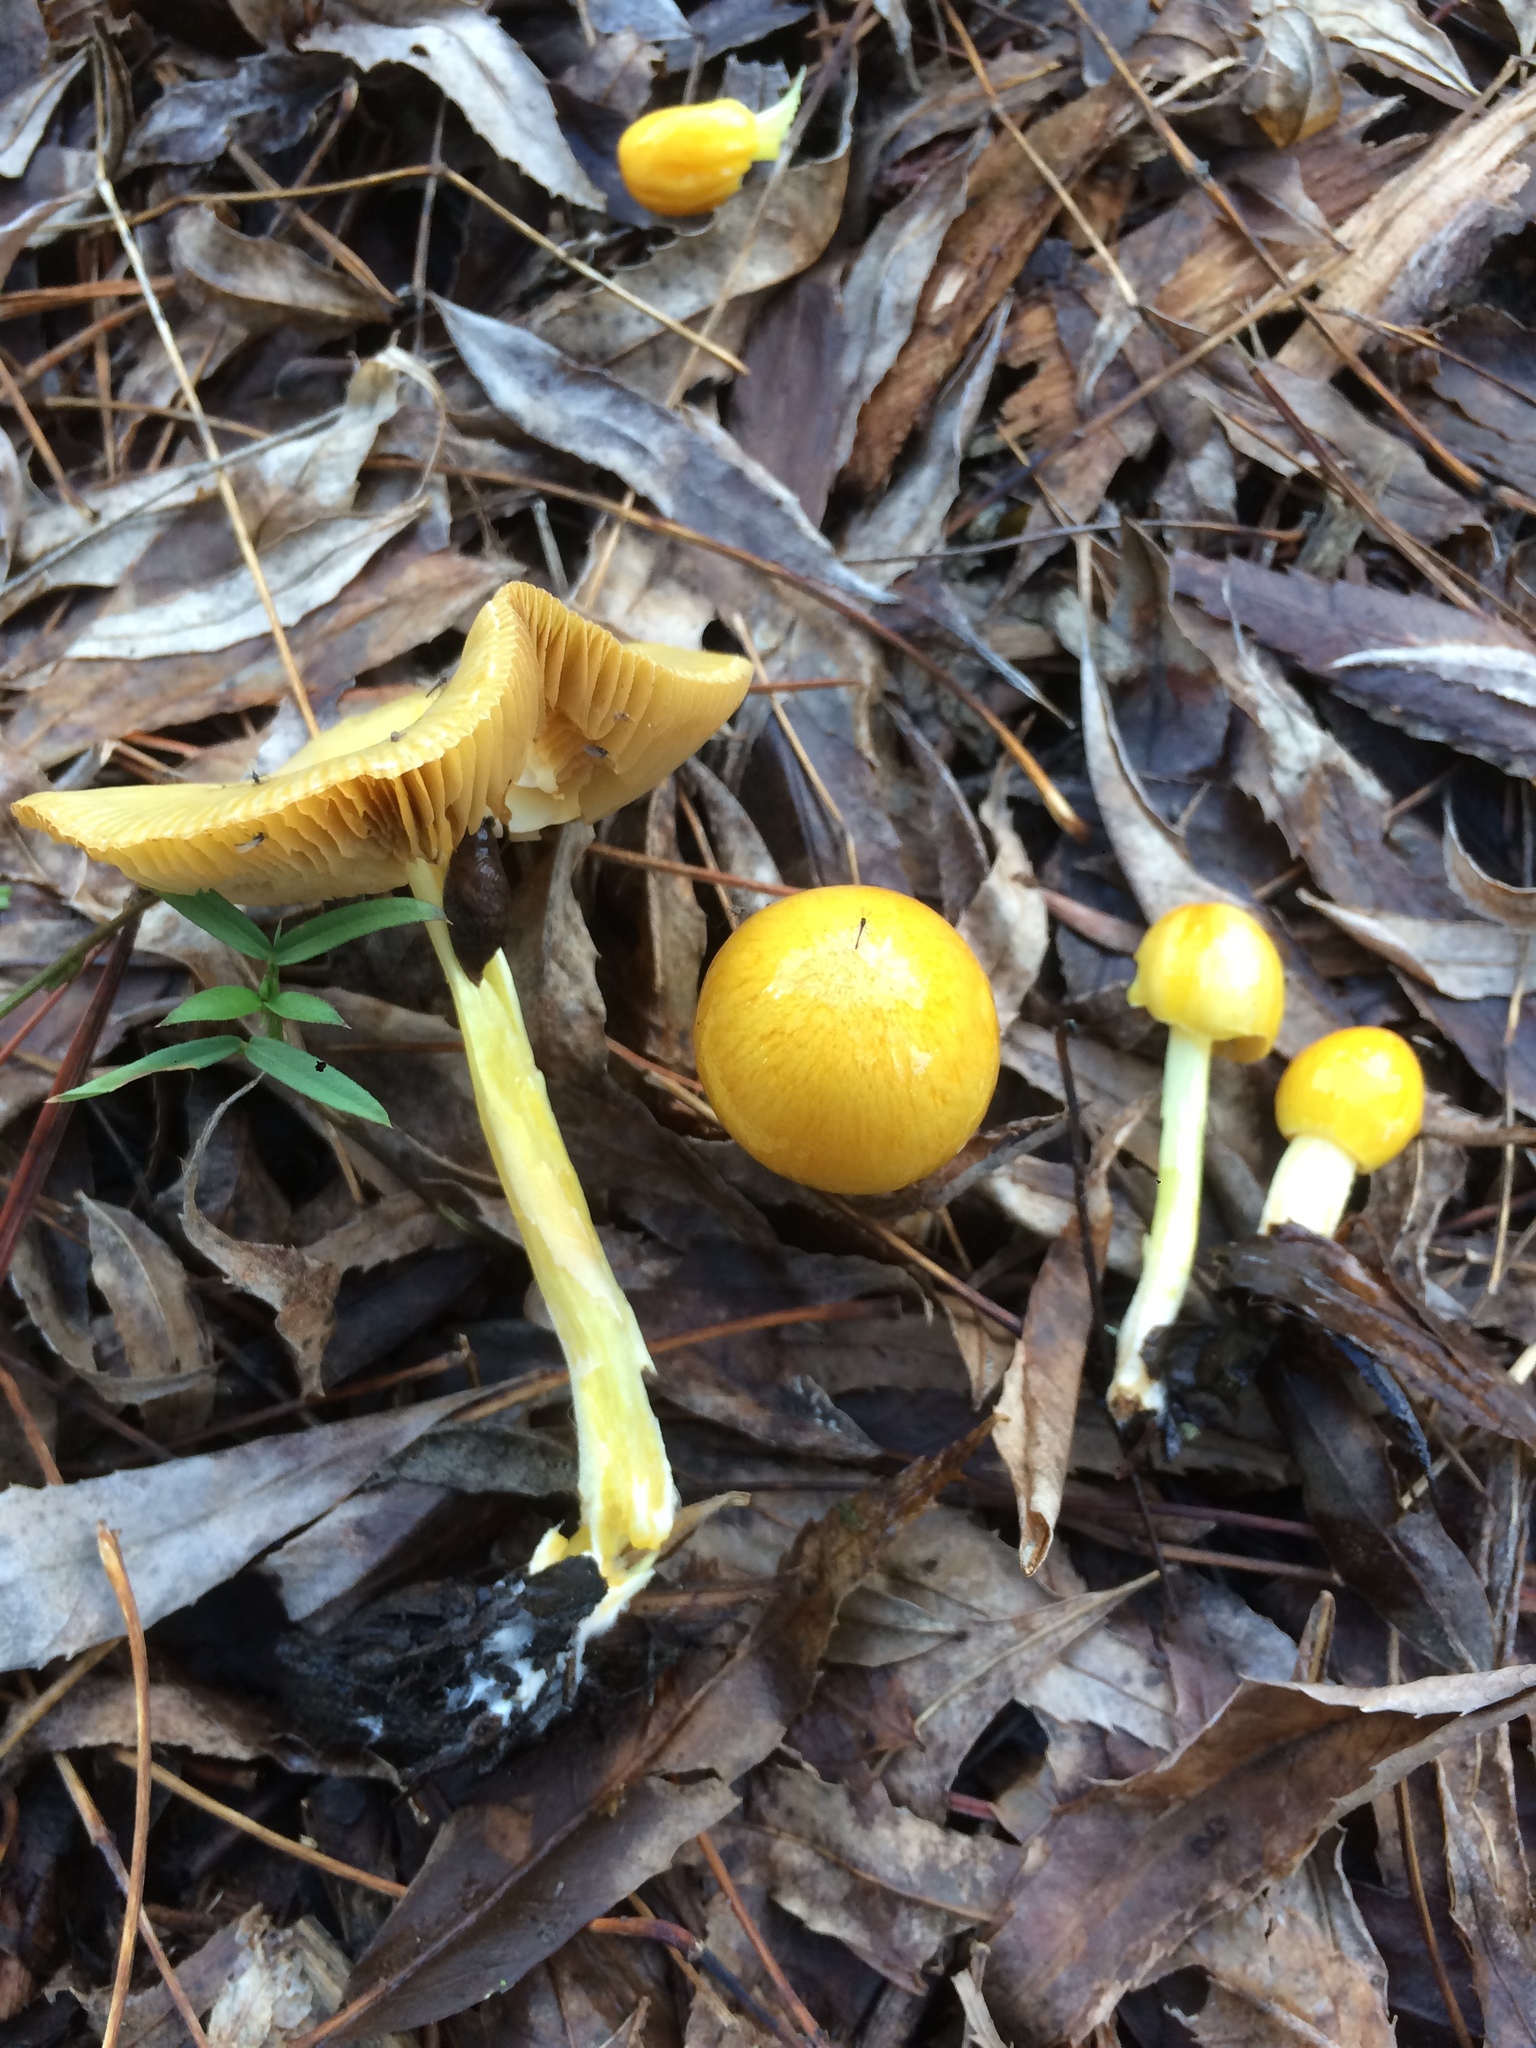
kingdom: Fungi
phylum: Basidiomycota
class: Agaricomycetes
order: Agaricales
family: Bolbitiaceae
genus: Bolbitius
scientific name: Bolbitius titubans
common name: Yellow fieldcap
